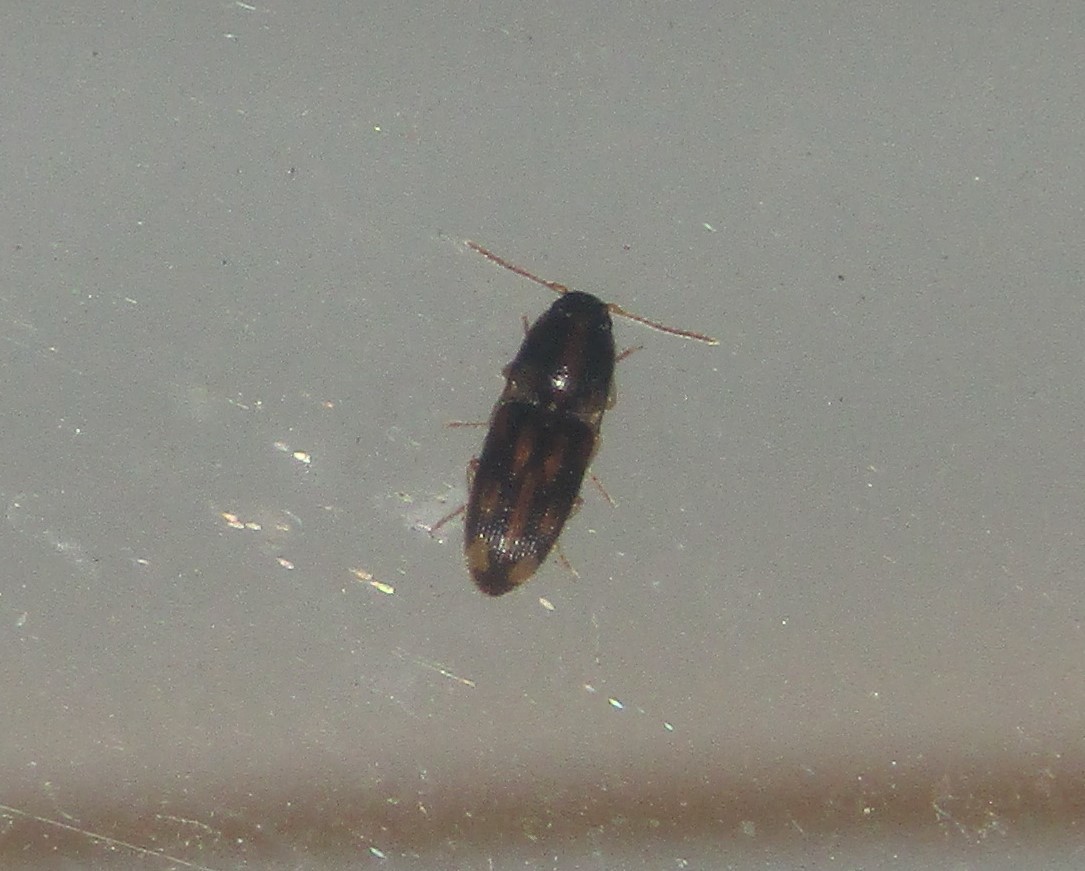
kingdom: Animalia
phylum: Arthropoda
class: Insecta
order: Coleoptera
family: Elateridae
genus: Monocrepidius
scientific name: Monocrepidius bellus
